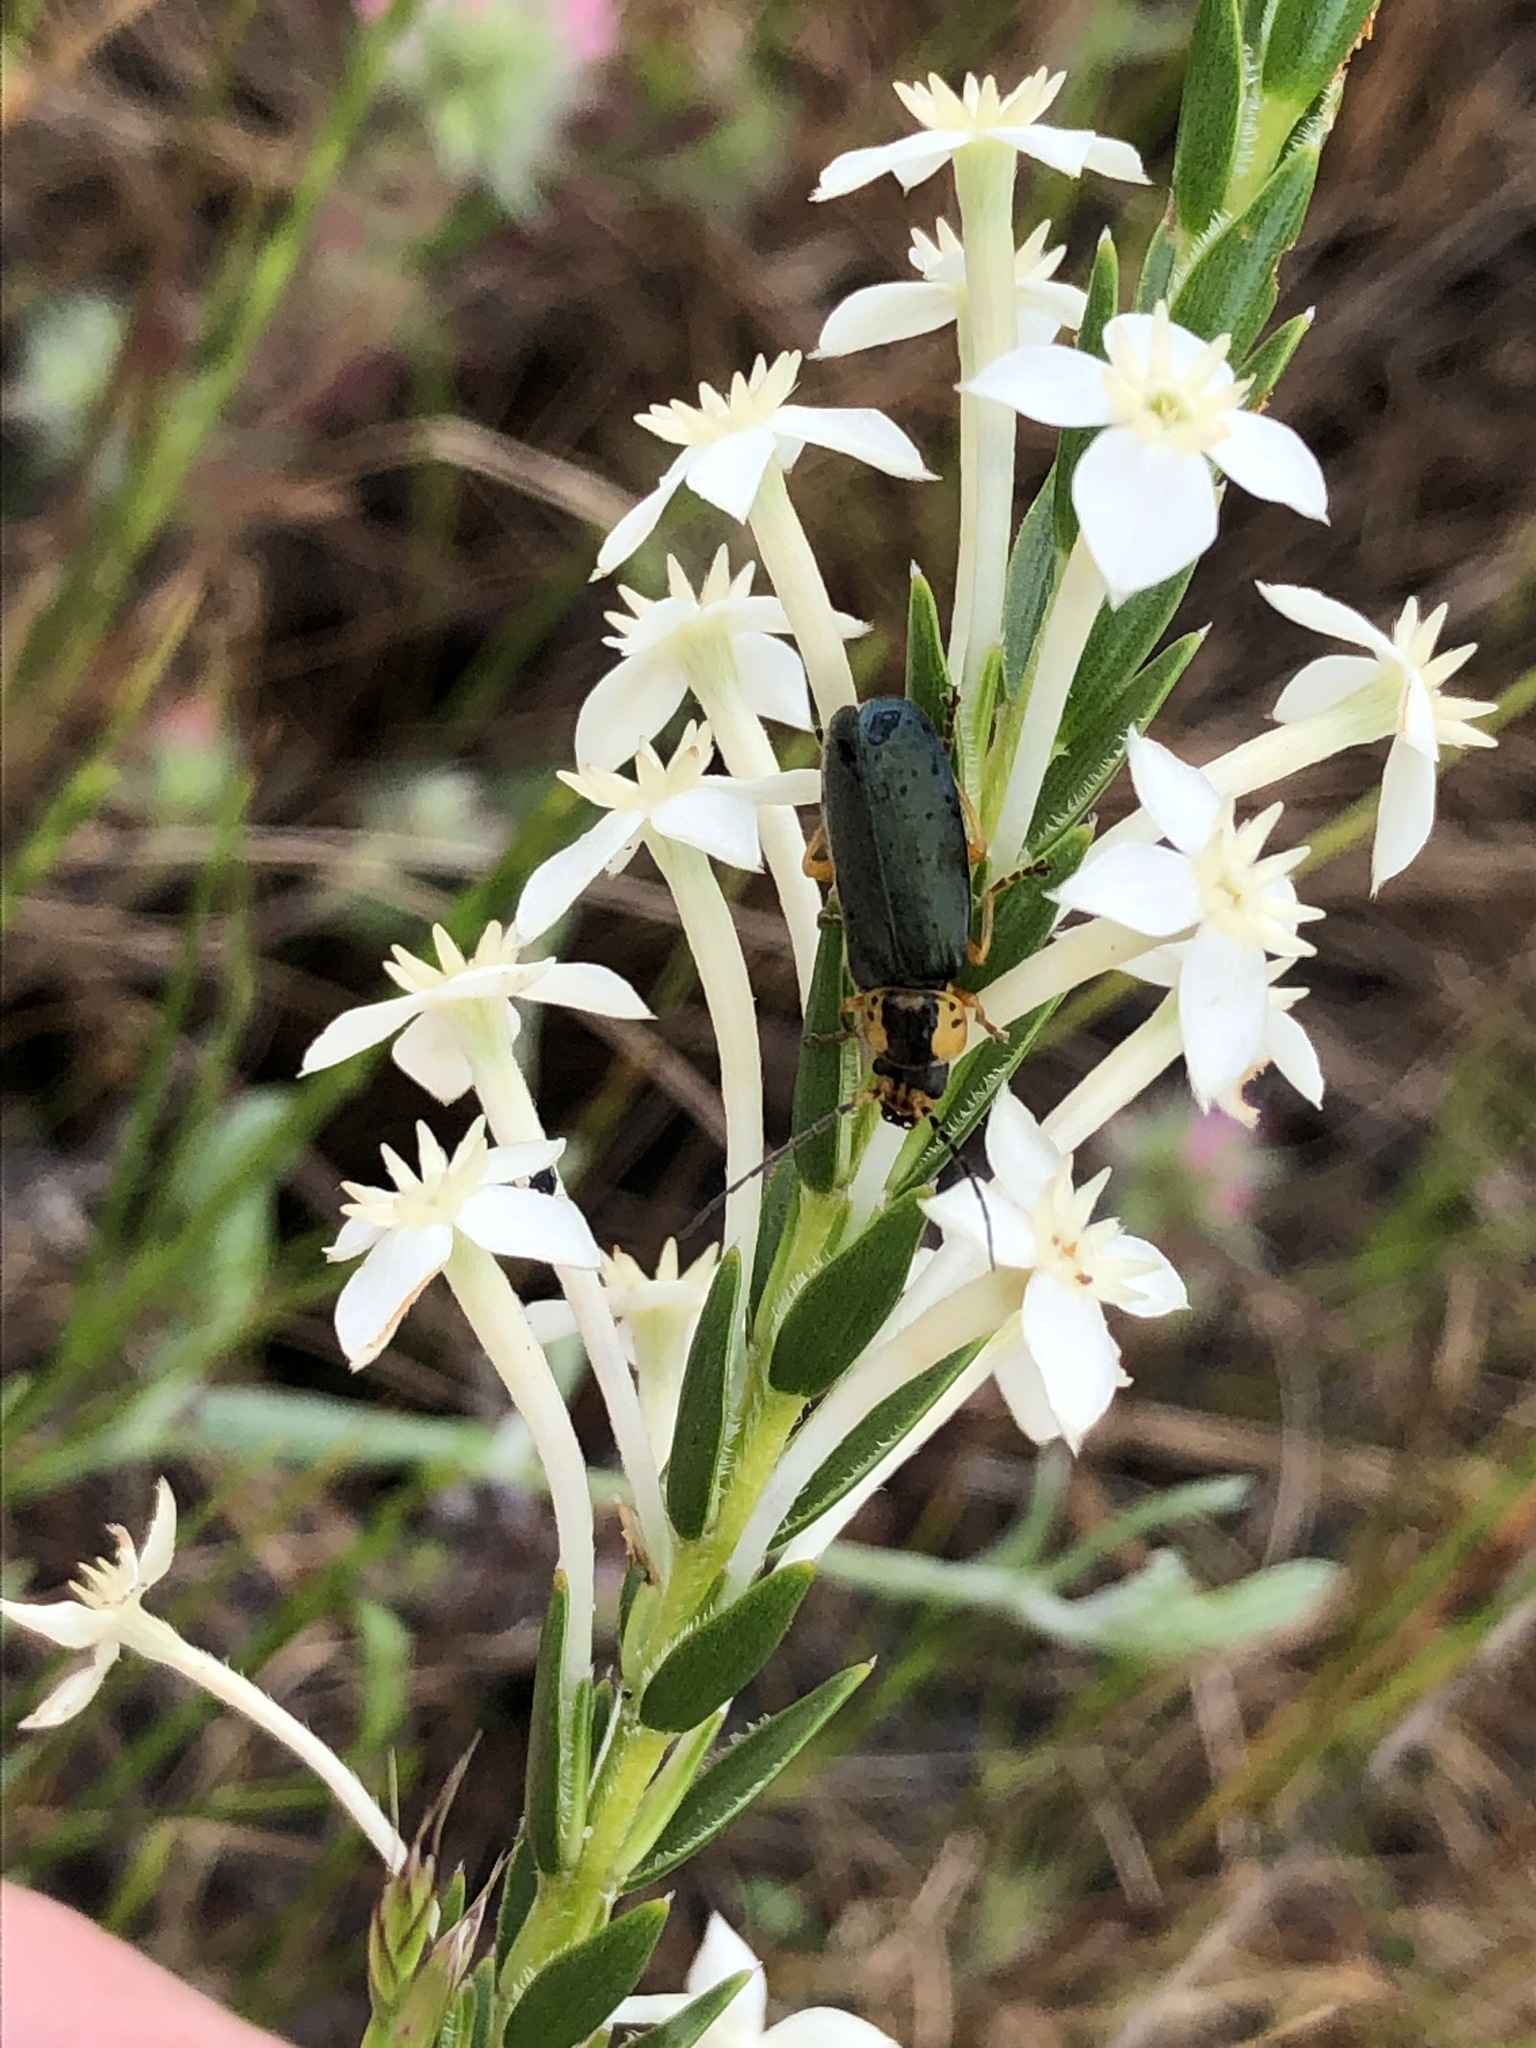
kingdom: Animalia
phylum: Arthropoda
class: Insecta
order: Coleoptera
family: Cantharidae
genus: Afronycha
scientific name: Afronycha
